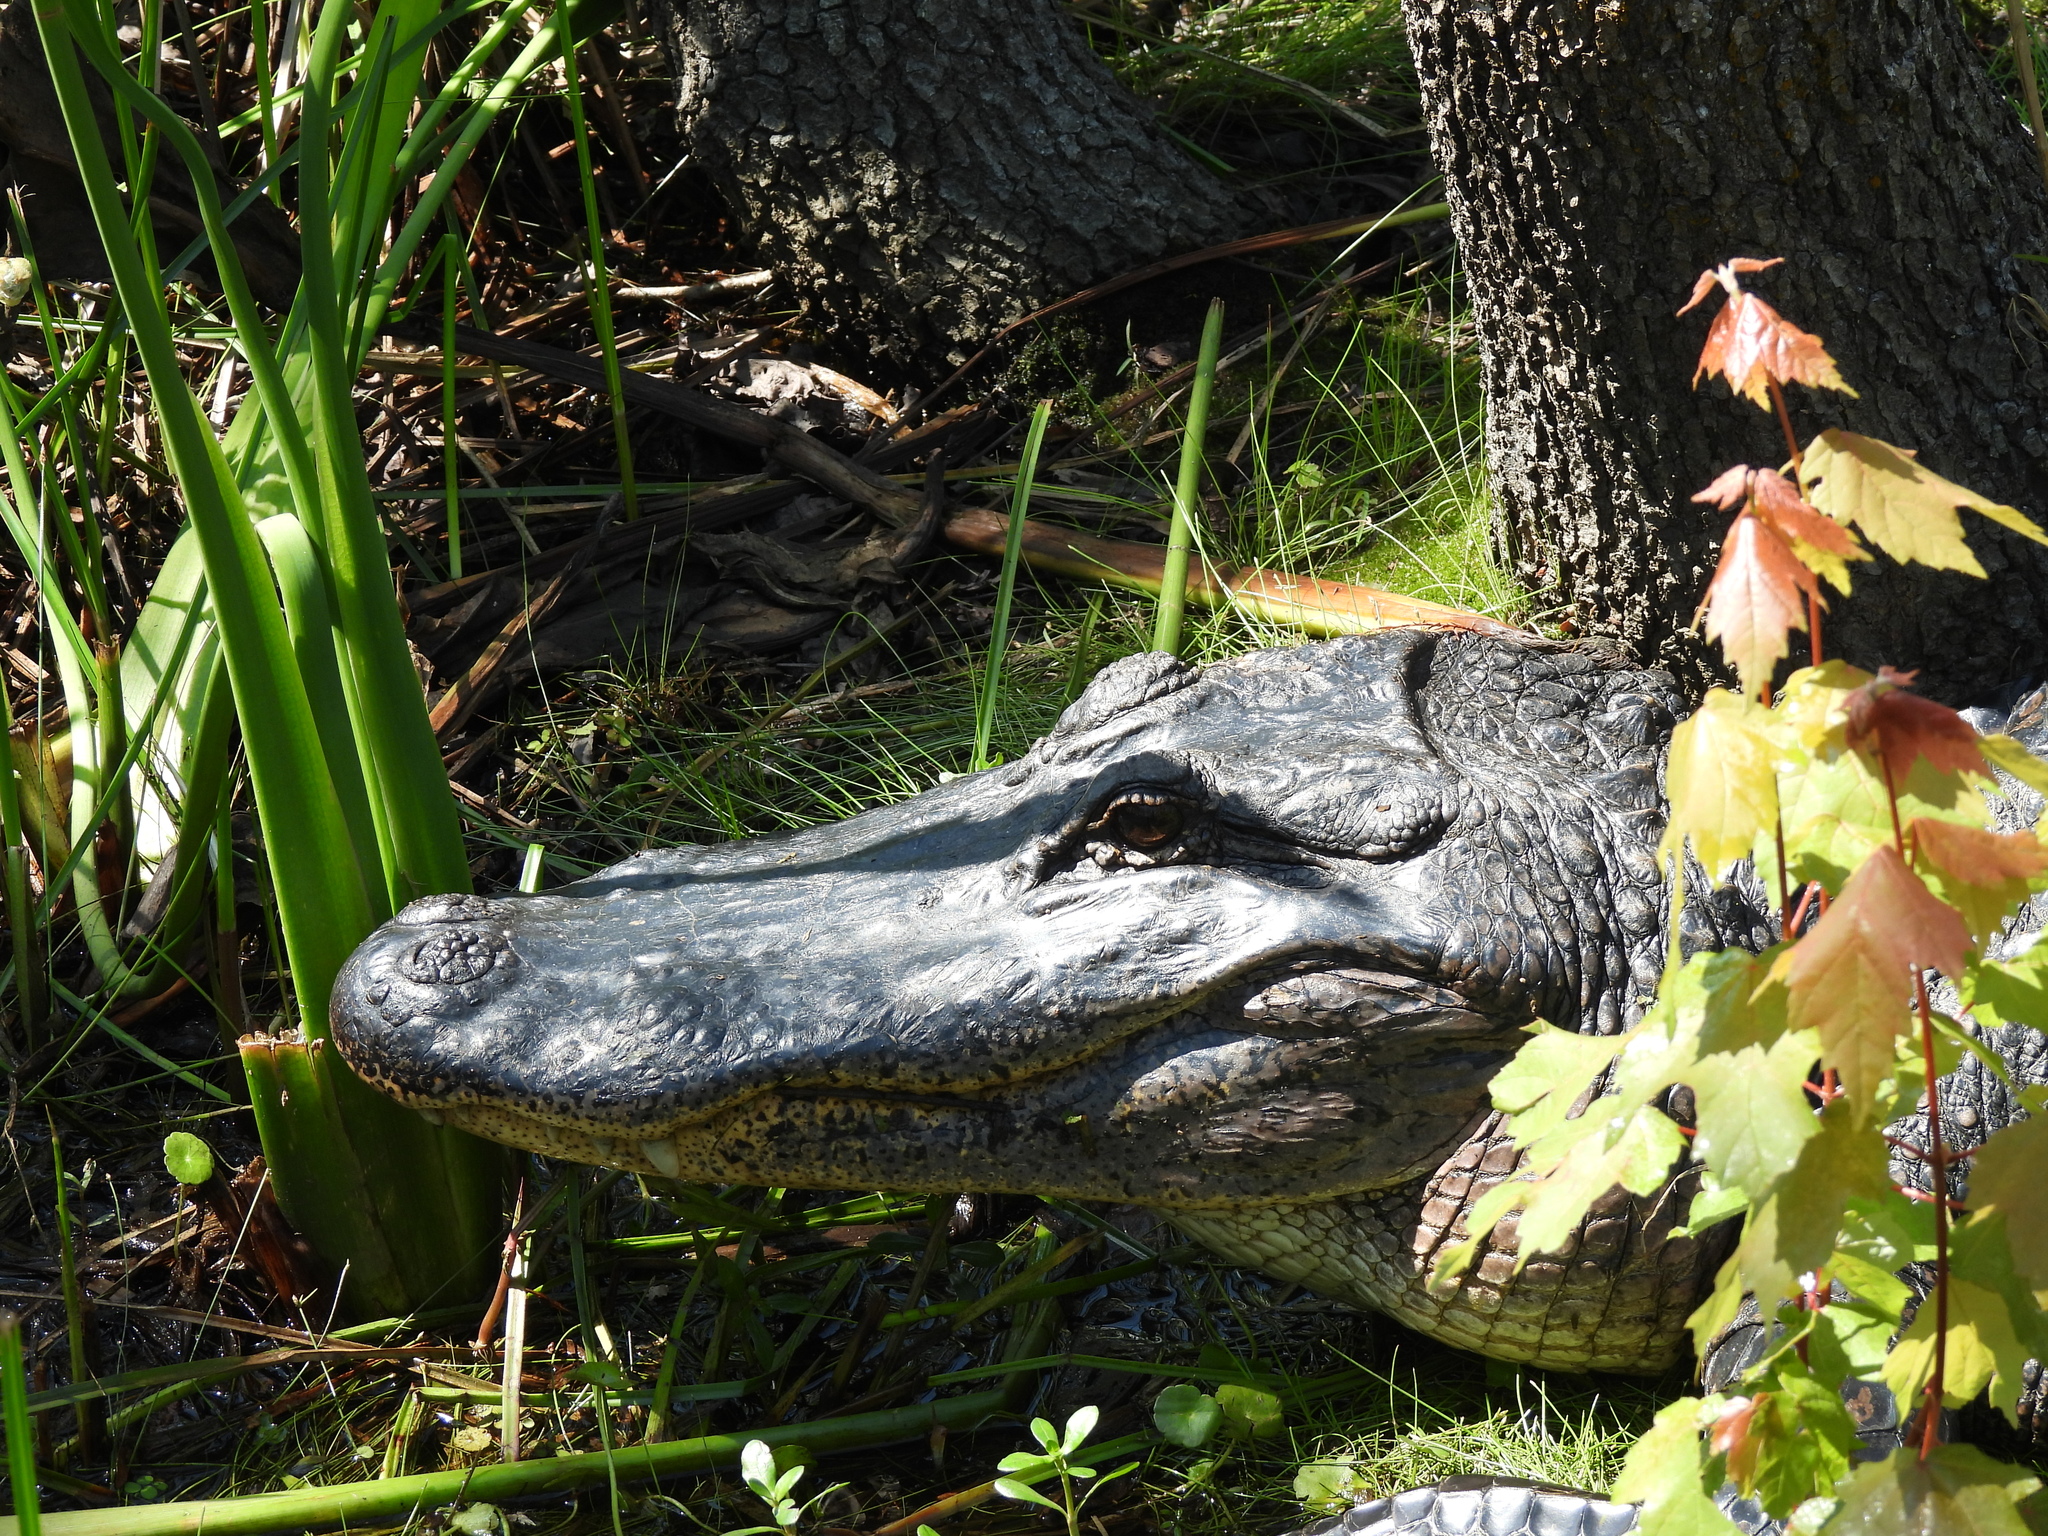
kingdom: Animalia
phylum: Chordata
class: Crocodylia
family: Alligatoridae
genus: Alligator
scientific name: Alligator mississippiensis
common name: American alligator
